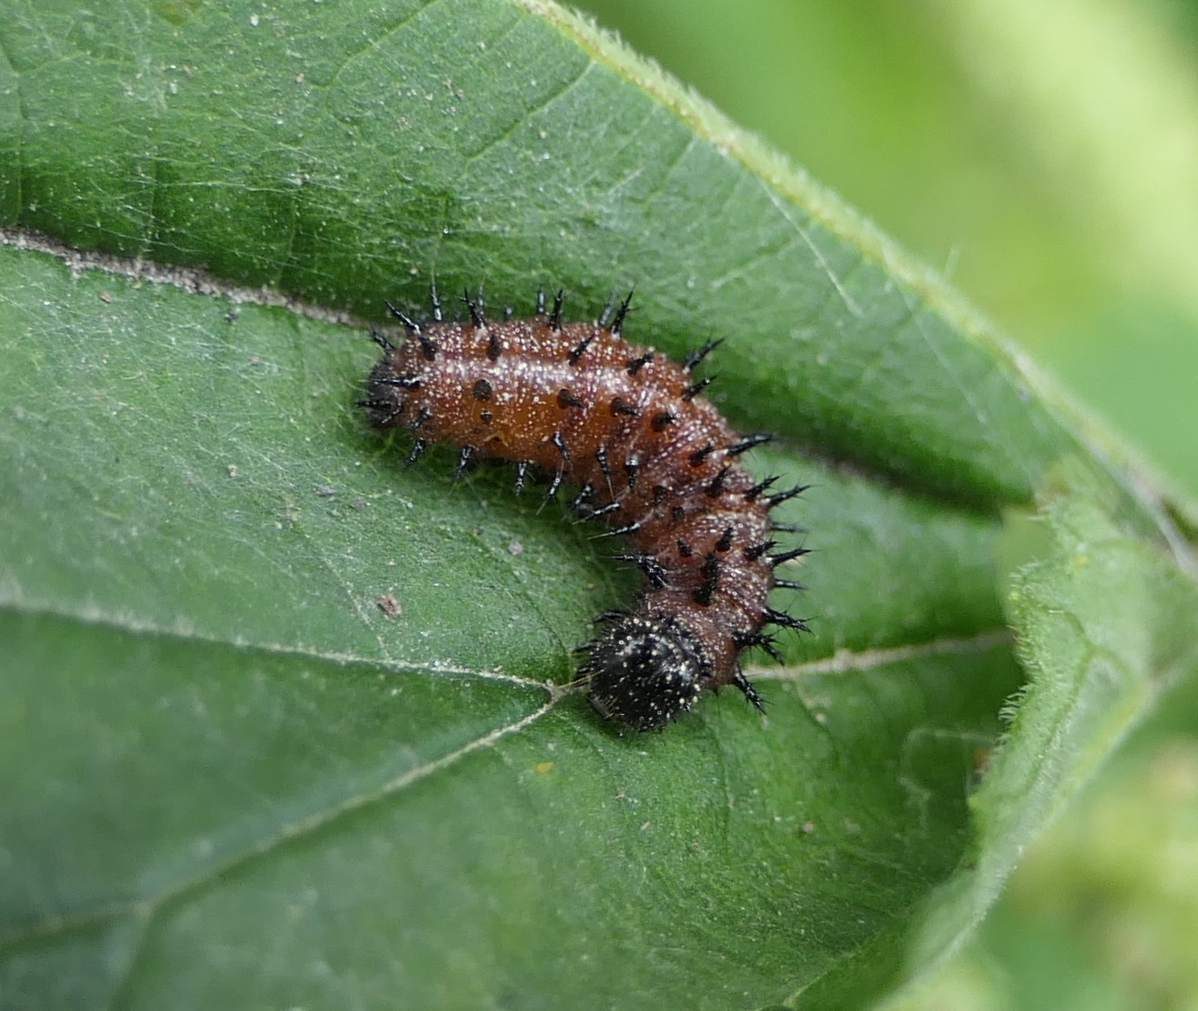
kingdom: Animalia
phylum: Arthropoda
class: Insecta
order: Lepidoptera
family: Nymphalidae
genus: Vanessa
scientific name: Vanessa atalanta
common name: Red admiral
